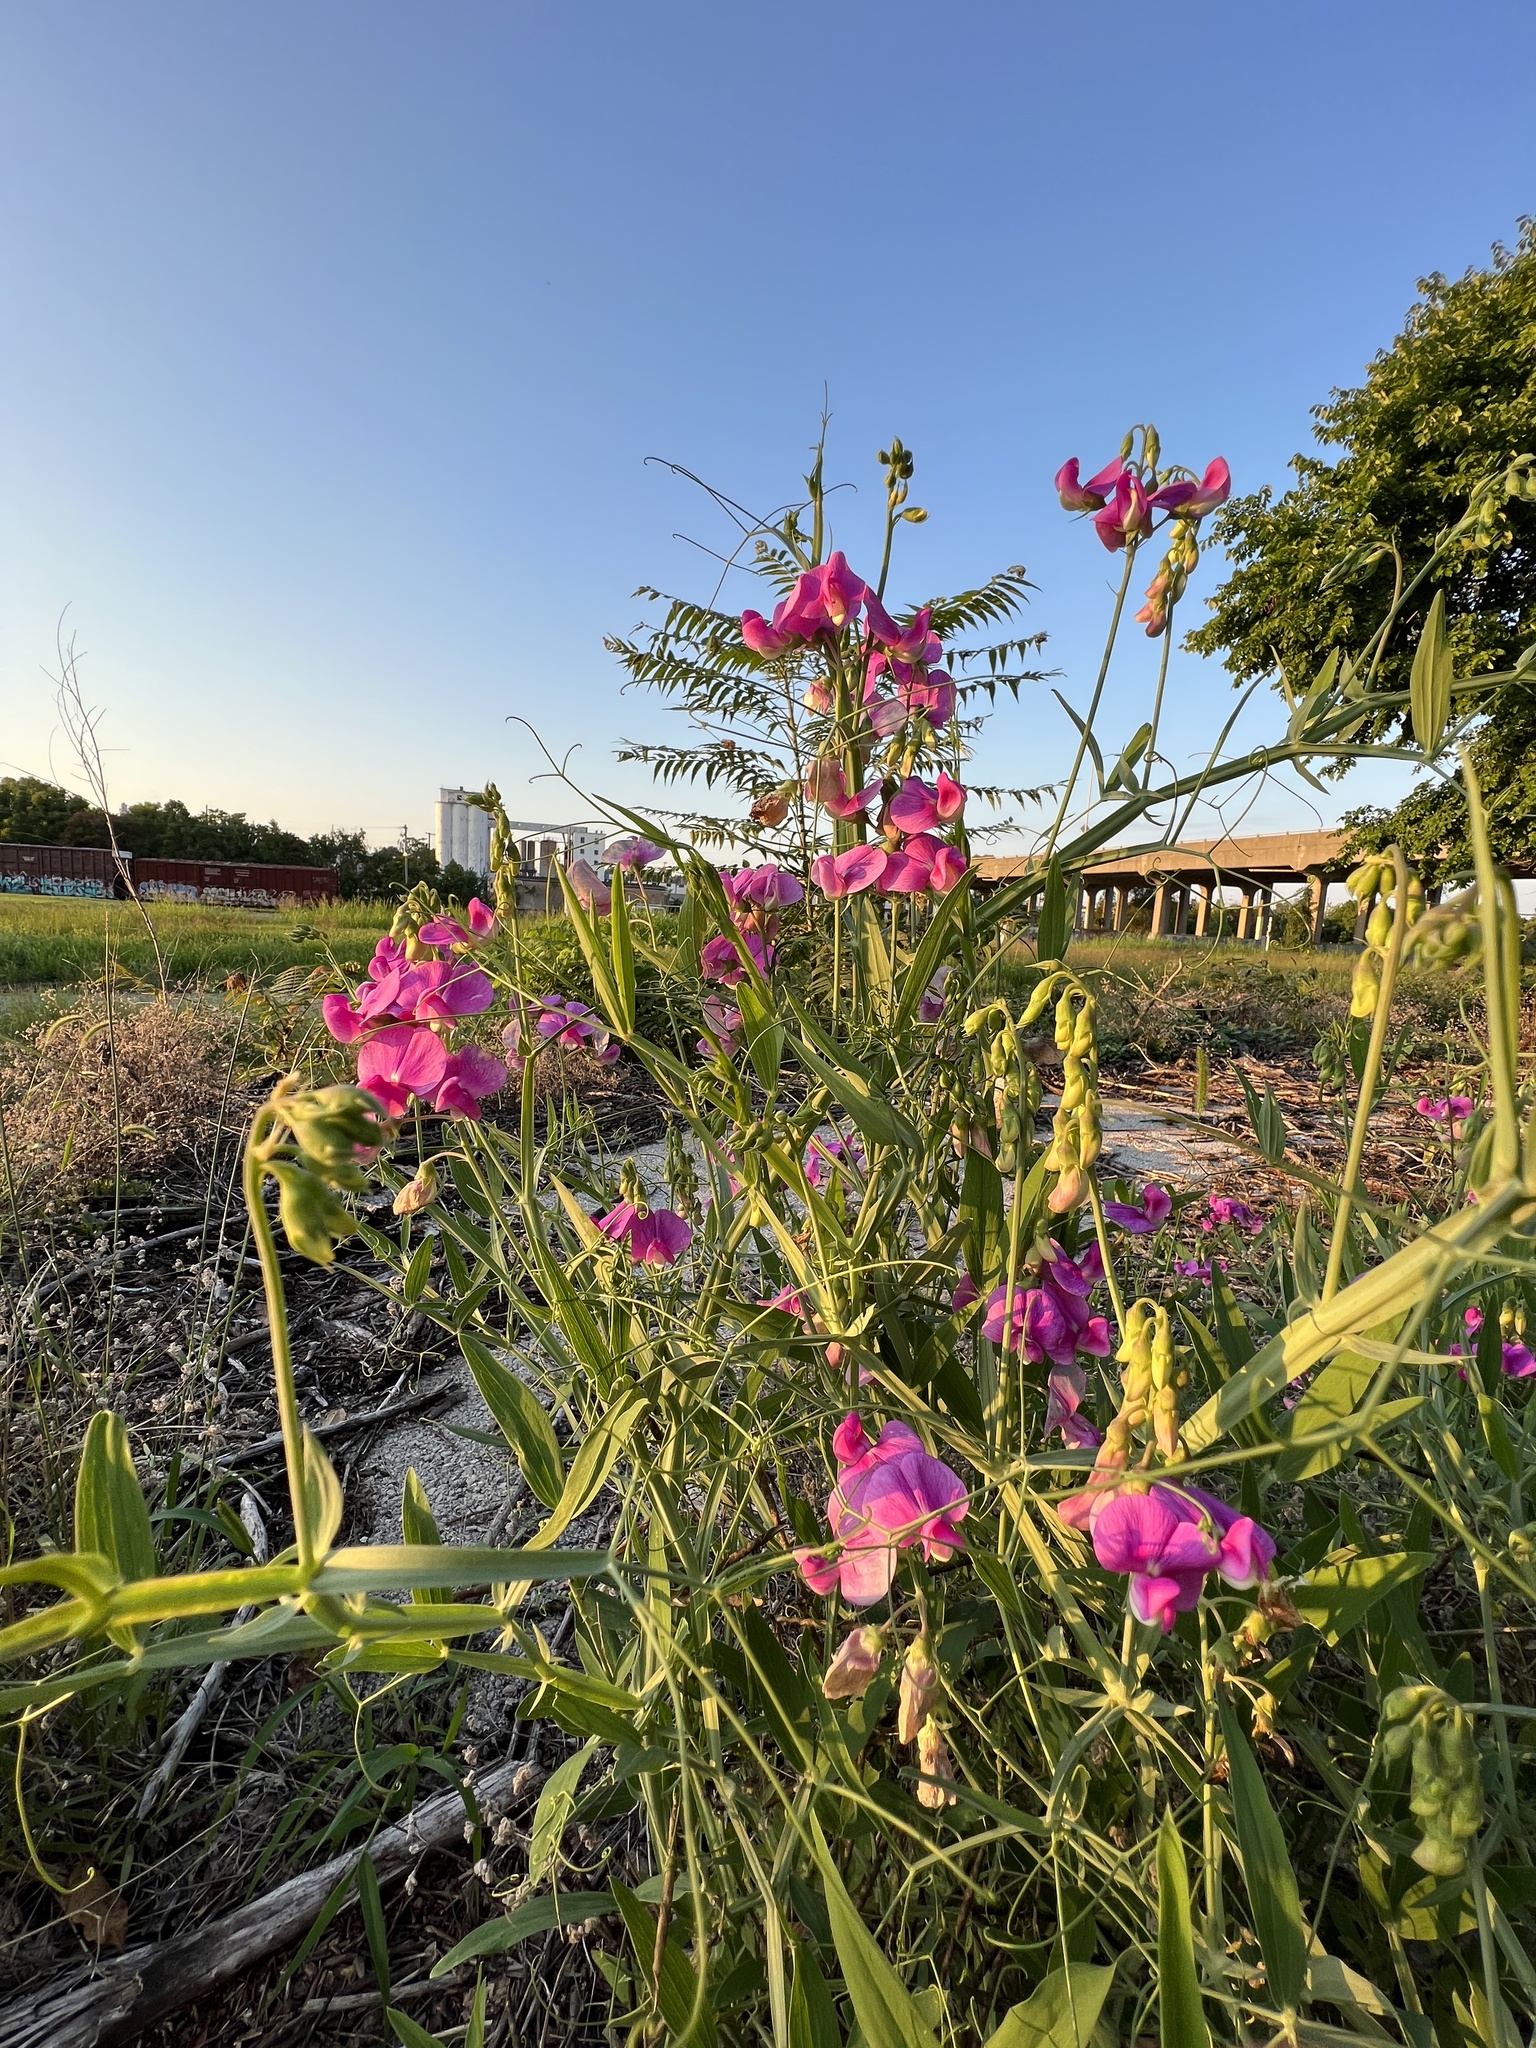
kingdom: Plantae
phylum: Tracheophyta
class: Magnoliopsida
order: Fabales
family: Fabaceae
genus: Lathyrus
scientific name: Lathyrus latifolius
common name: Perennial pea
